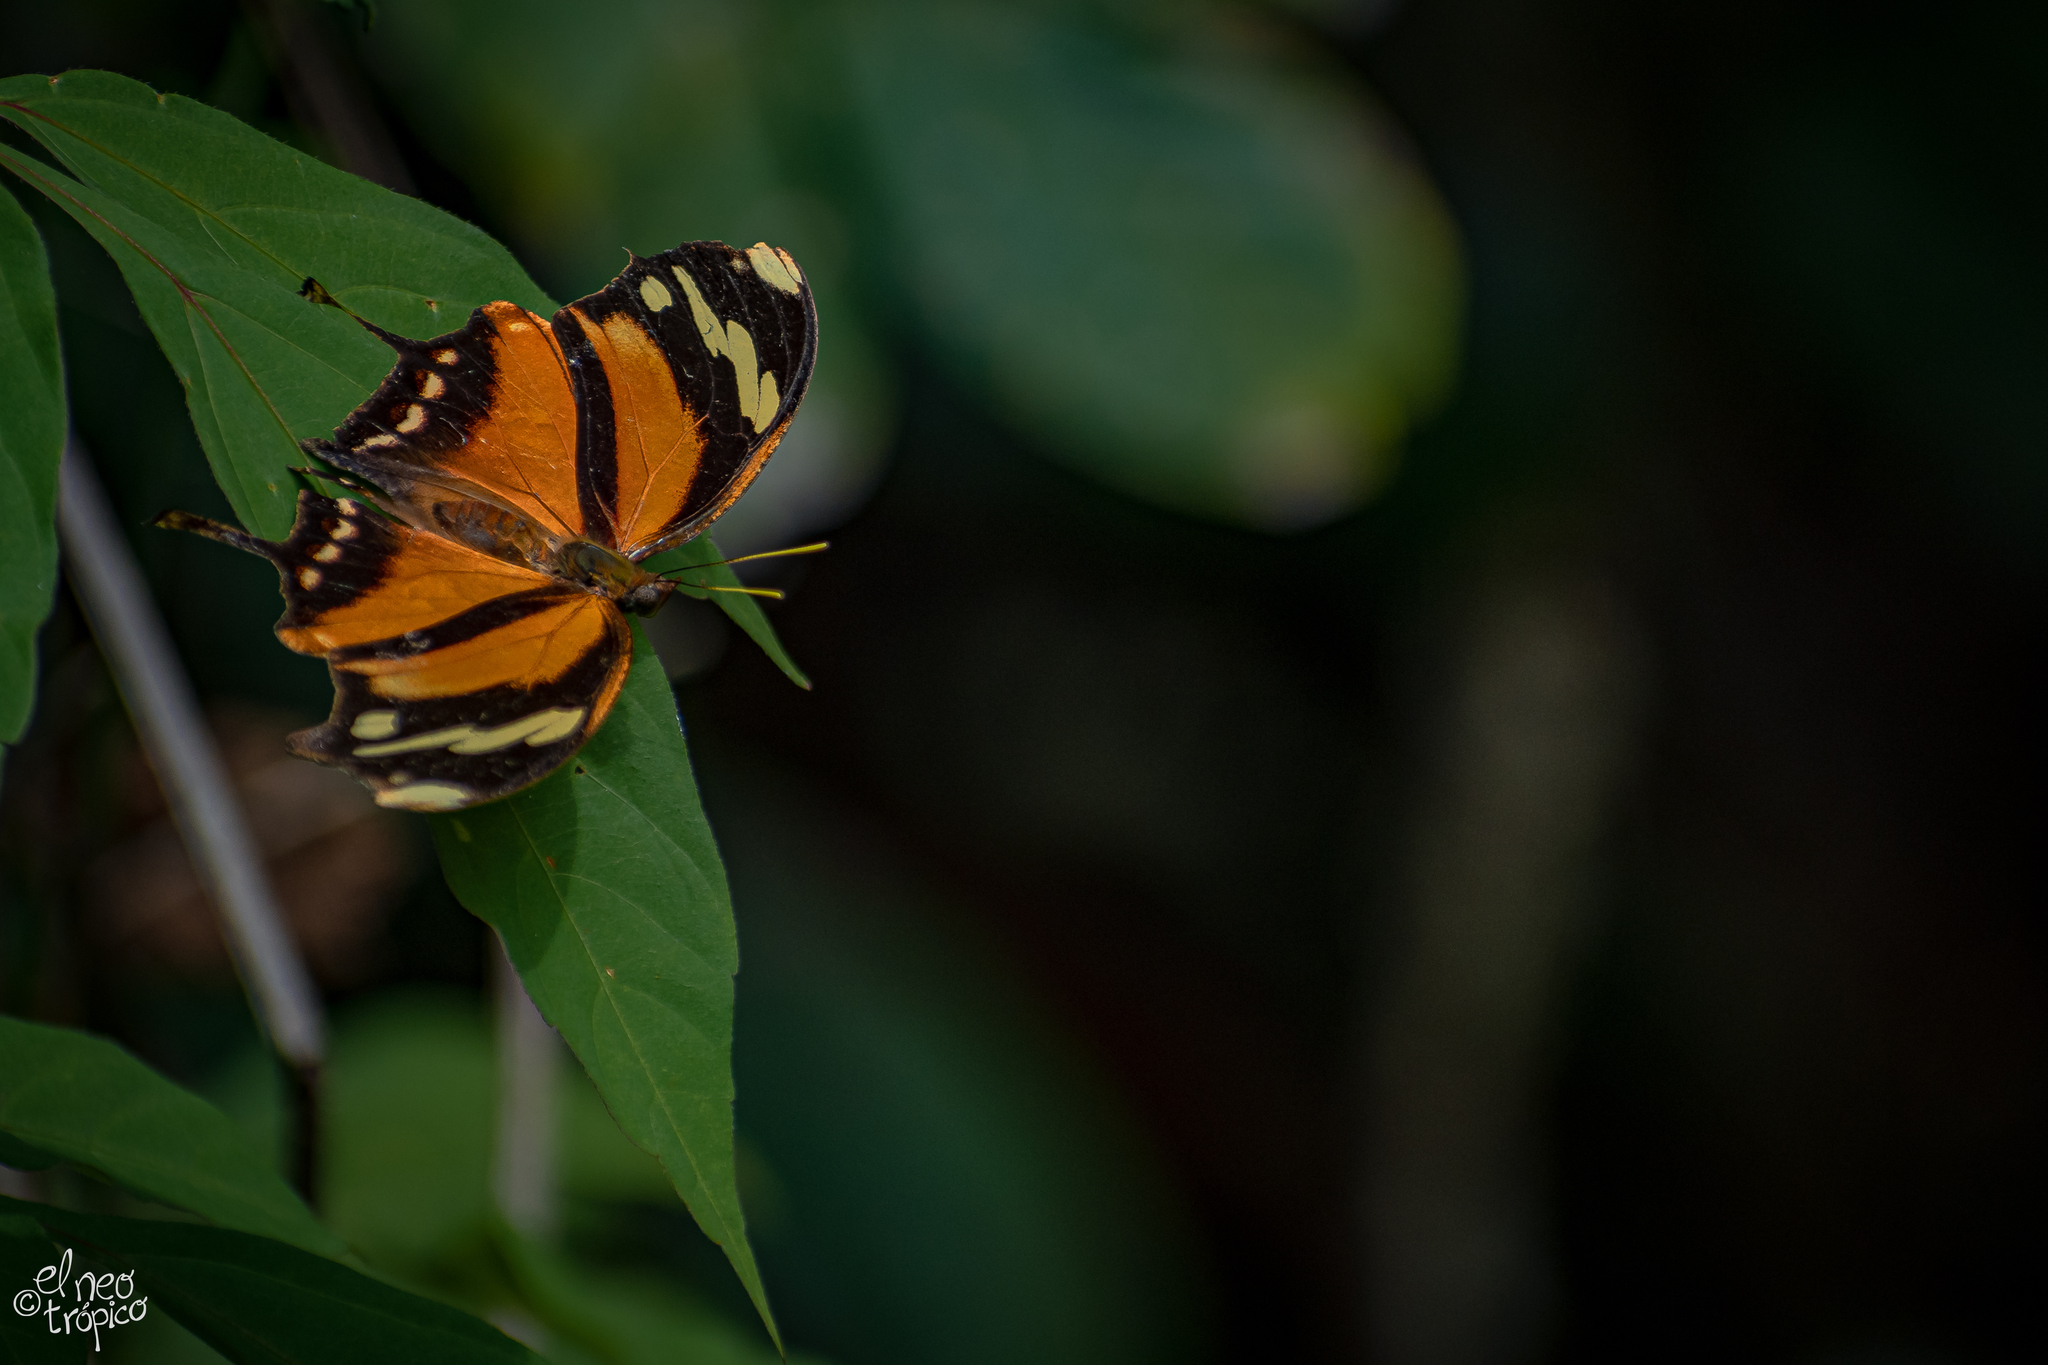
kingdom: Animalia
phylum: Arthropoda
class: Insecta
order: Lepidoptera
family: Nymphalidae
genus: Consul
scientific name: Consul fabius
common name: Tiger leafwing
